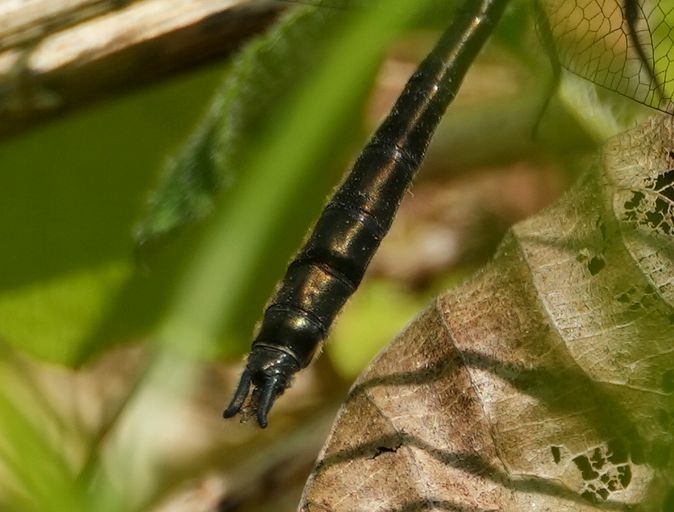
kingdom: Animalia
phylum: Arthropoda
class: Insecta
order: Odonata
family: Corduliidae
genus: Cordulia
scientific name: Cordulia shurtleffii
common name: American emerald
